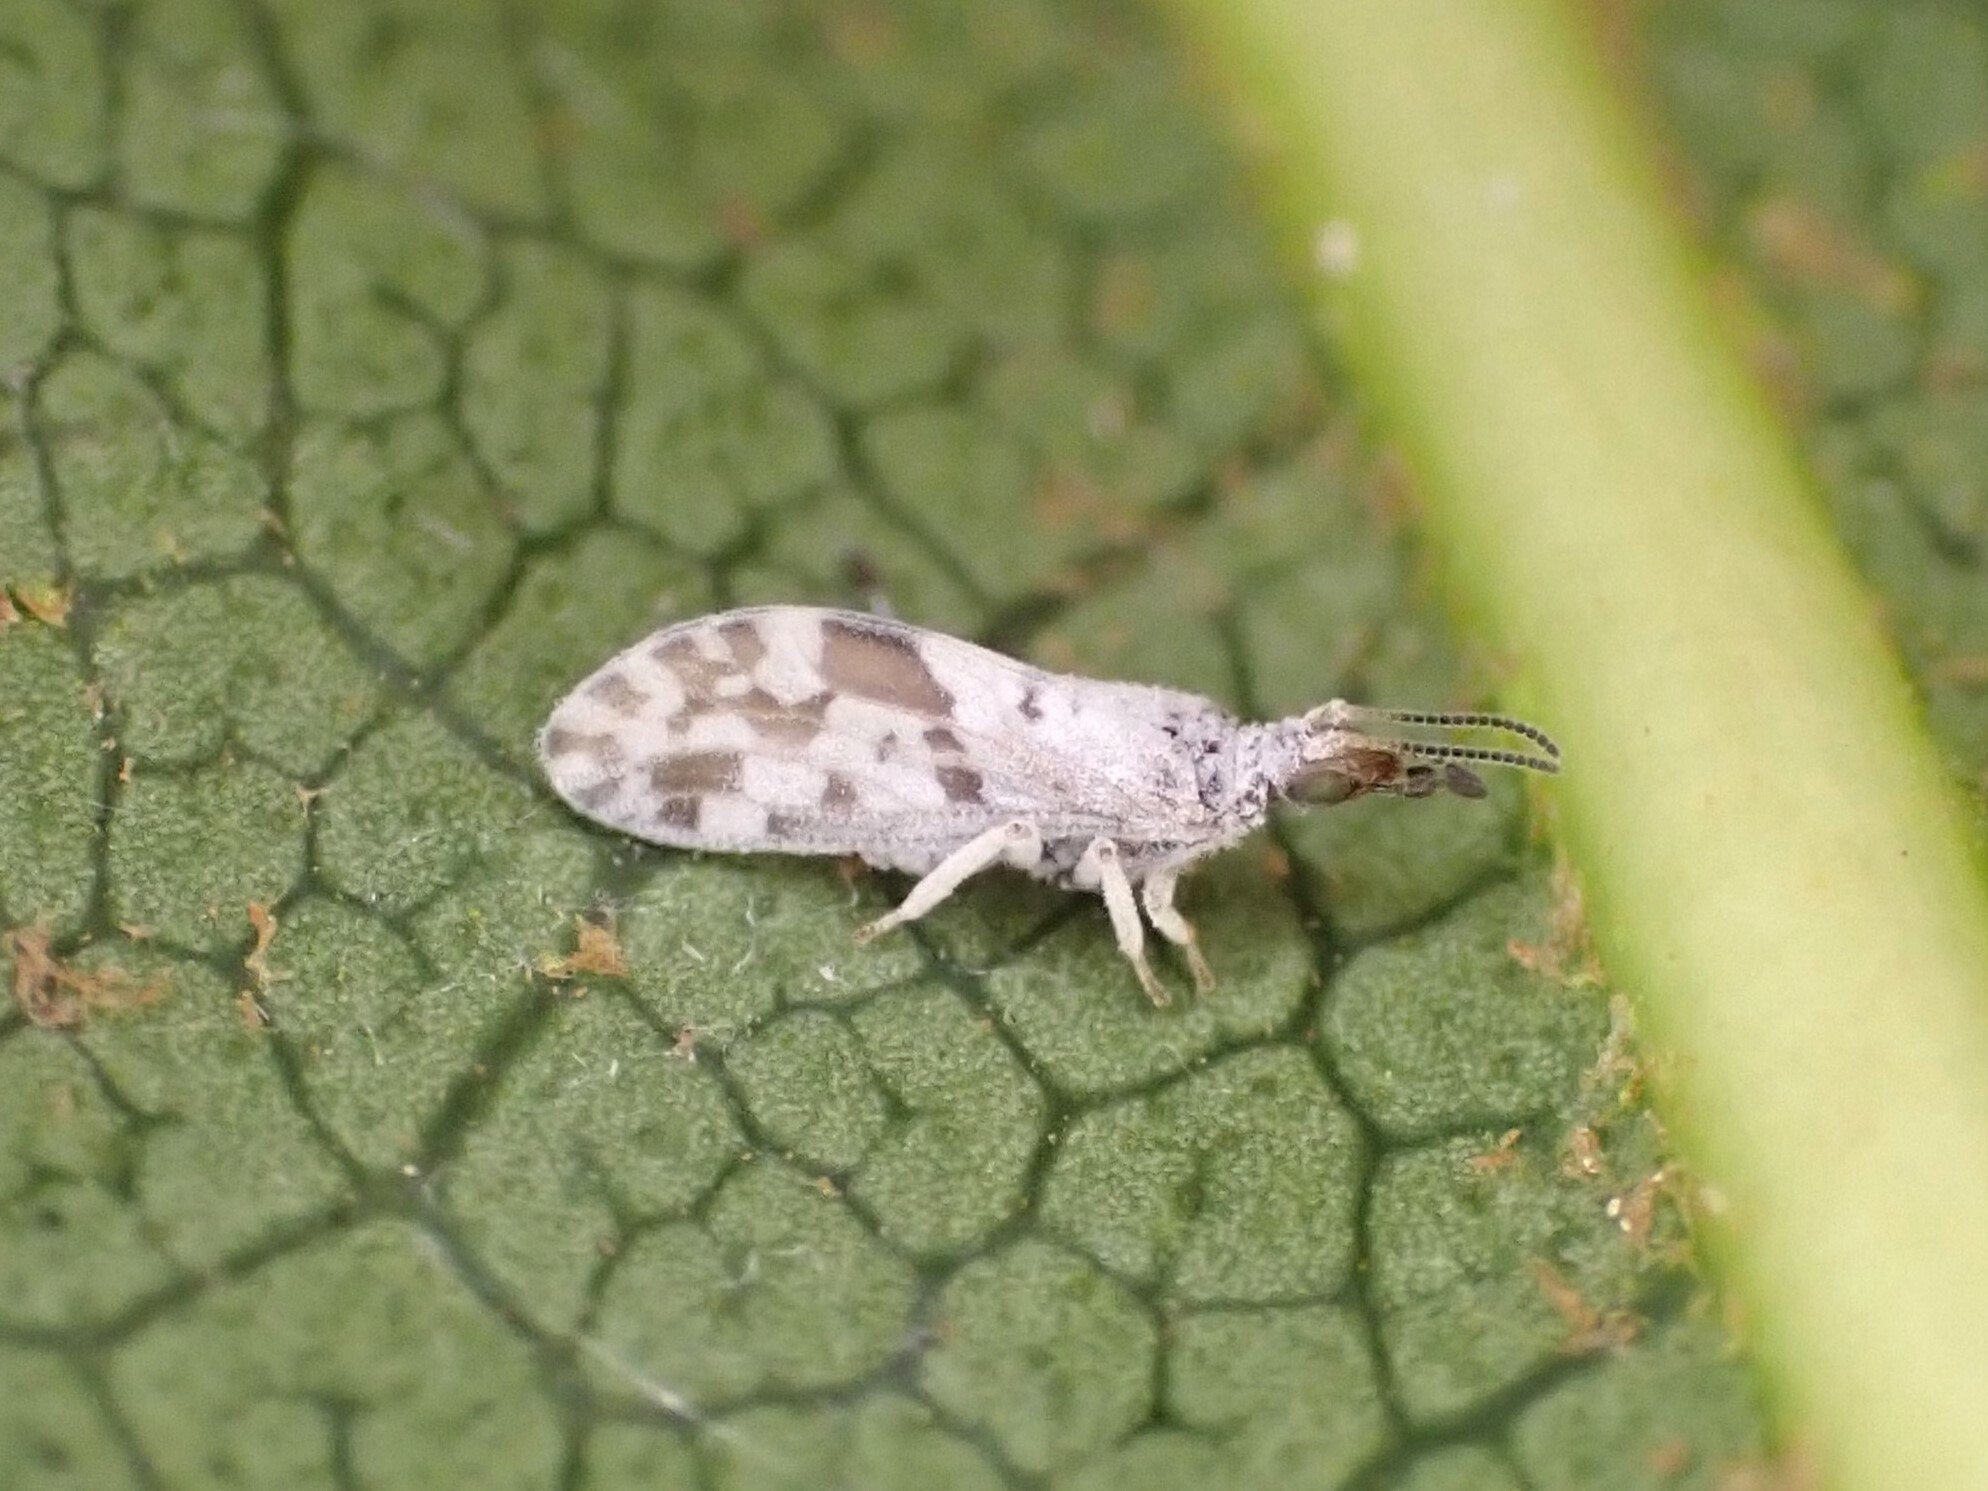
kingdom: Animalia
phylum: Arthropoda
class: Insecta
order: Neuroptera
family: Coniopterygidae
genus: Heteroconis
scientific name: Heteroconis ornata
